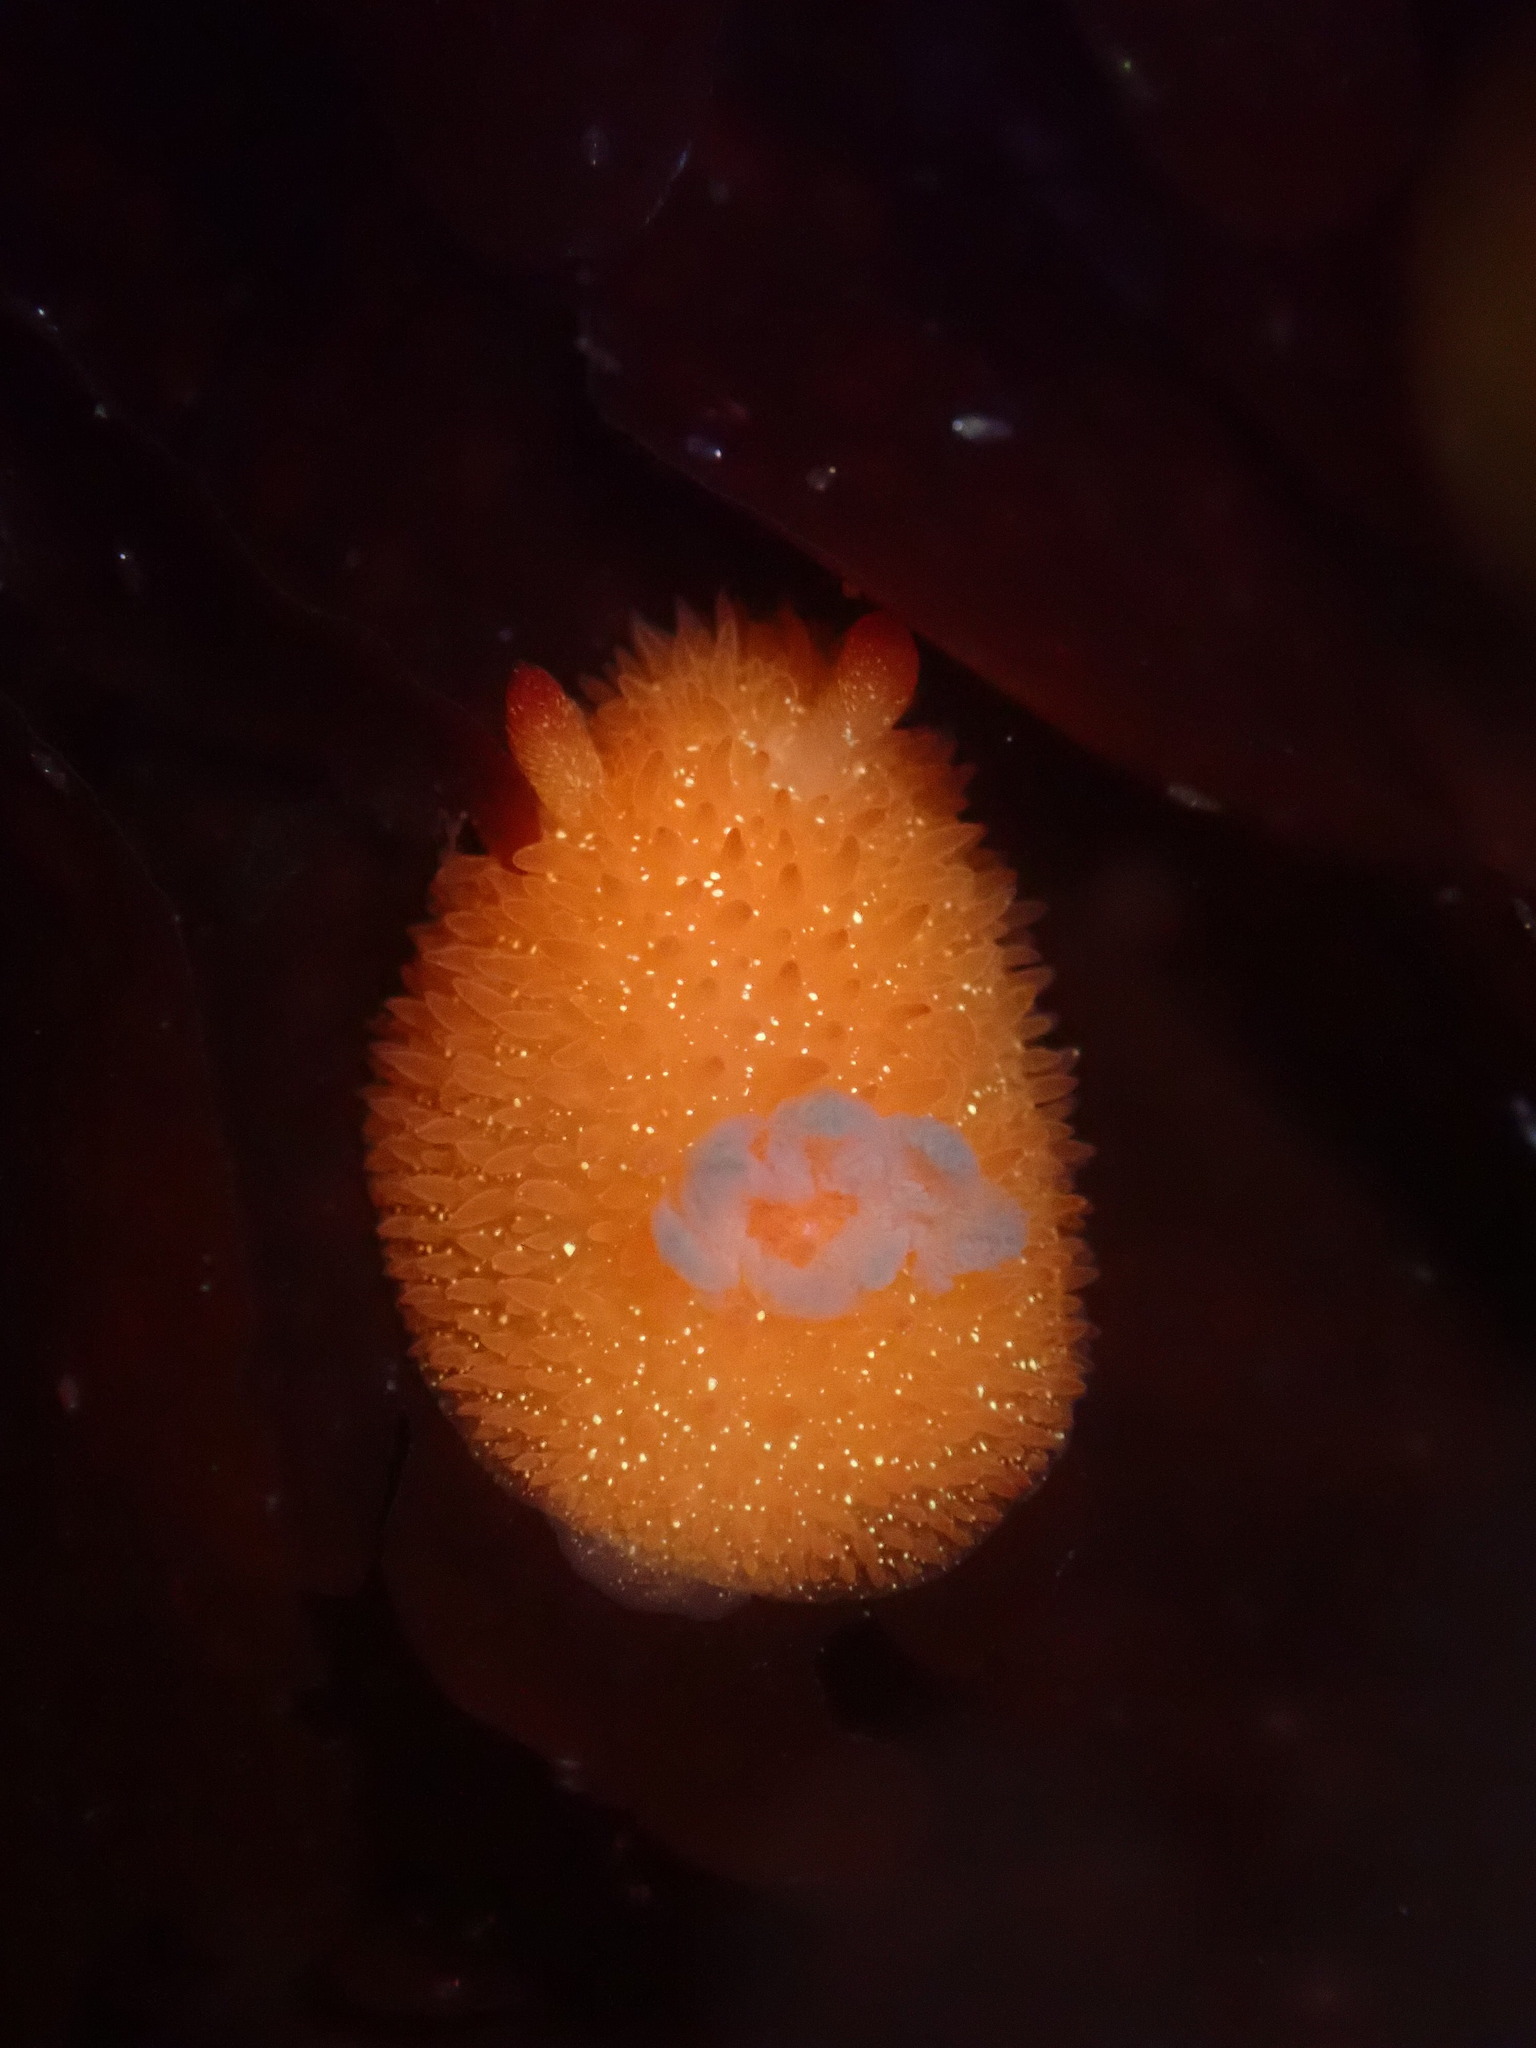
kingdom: Animalia
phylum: Mollusca
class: Gastropoda
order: Nudibranchia
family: Onchidorididae
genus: Acanthodoris
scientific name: Acanthodoris lutea
